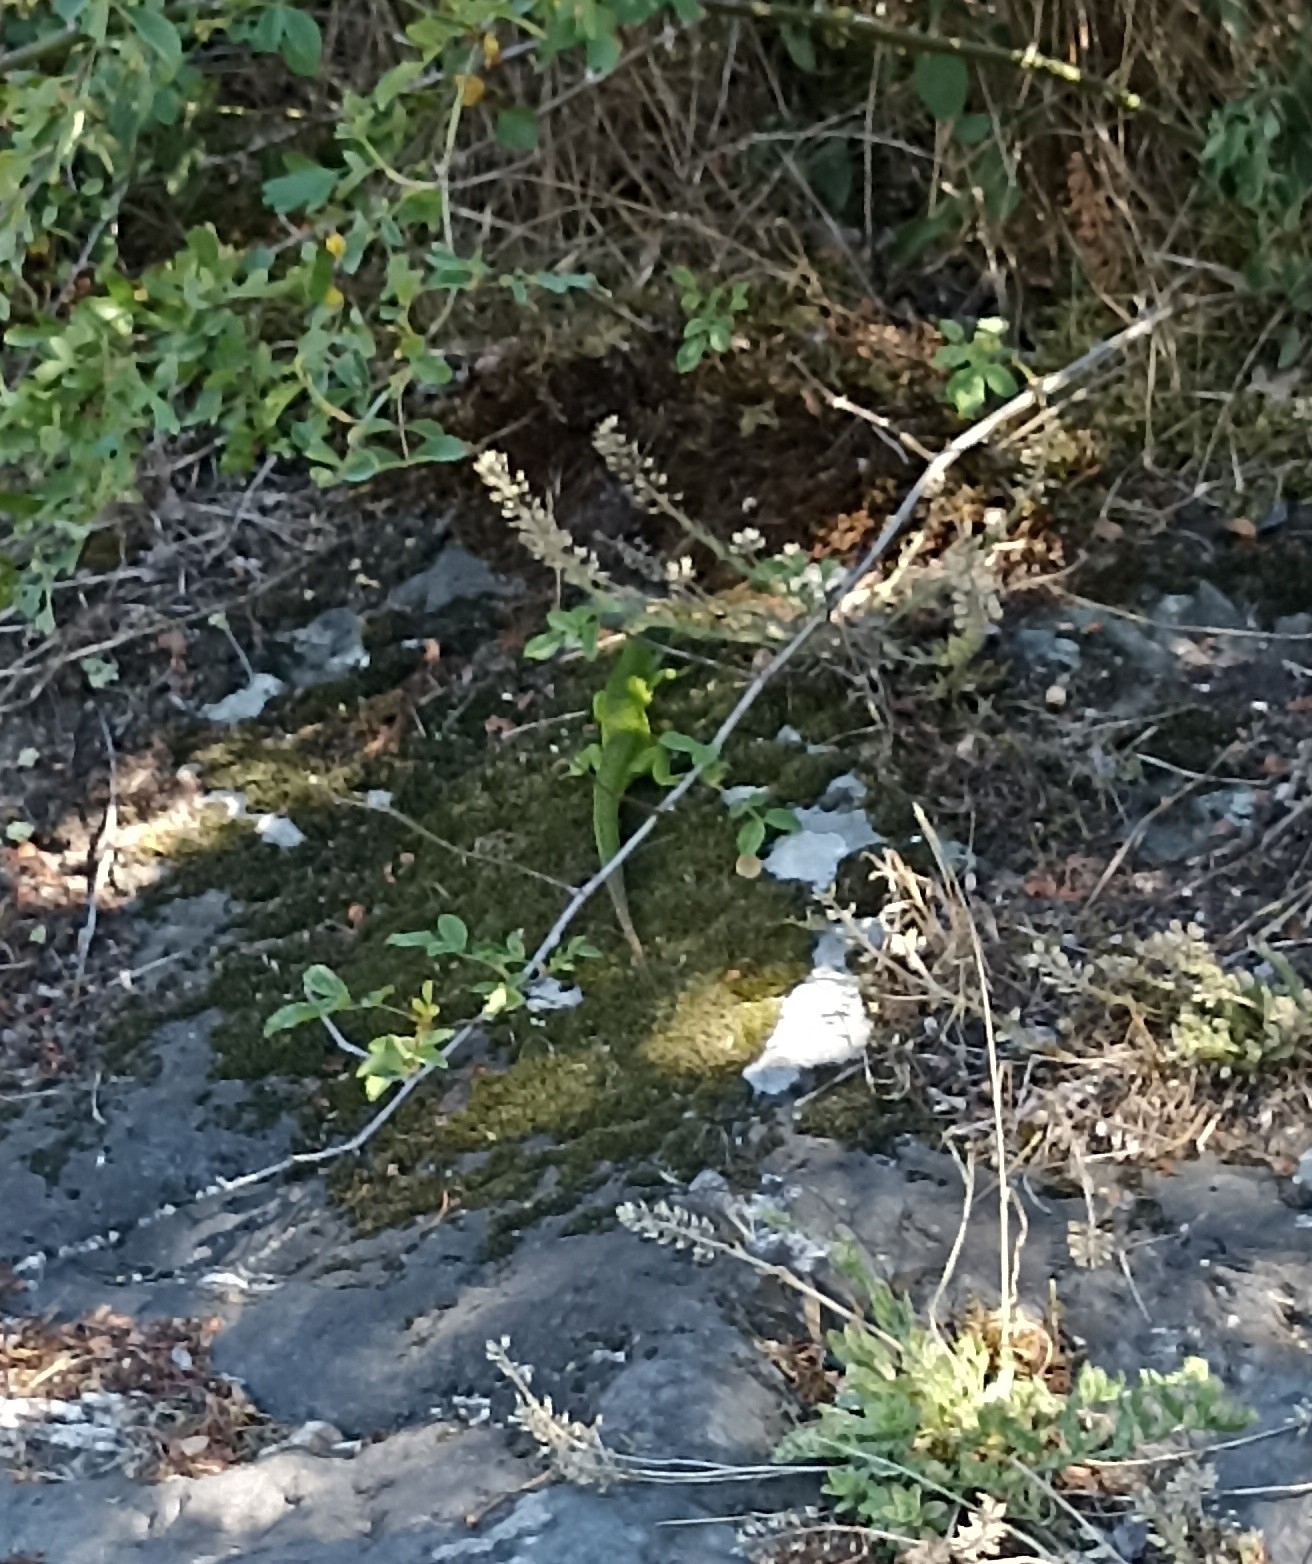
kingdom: Animalia
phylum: Chordata
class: Squamata
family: Lacertidae
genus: Lacerta
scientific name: Lacerta bilineata
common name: Western green lizard
